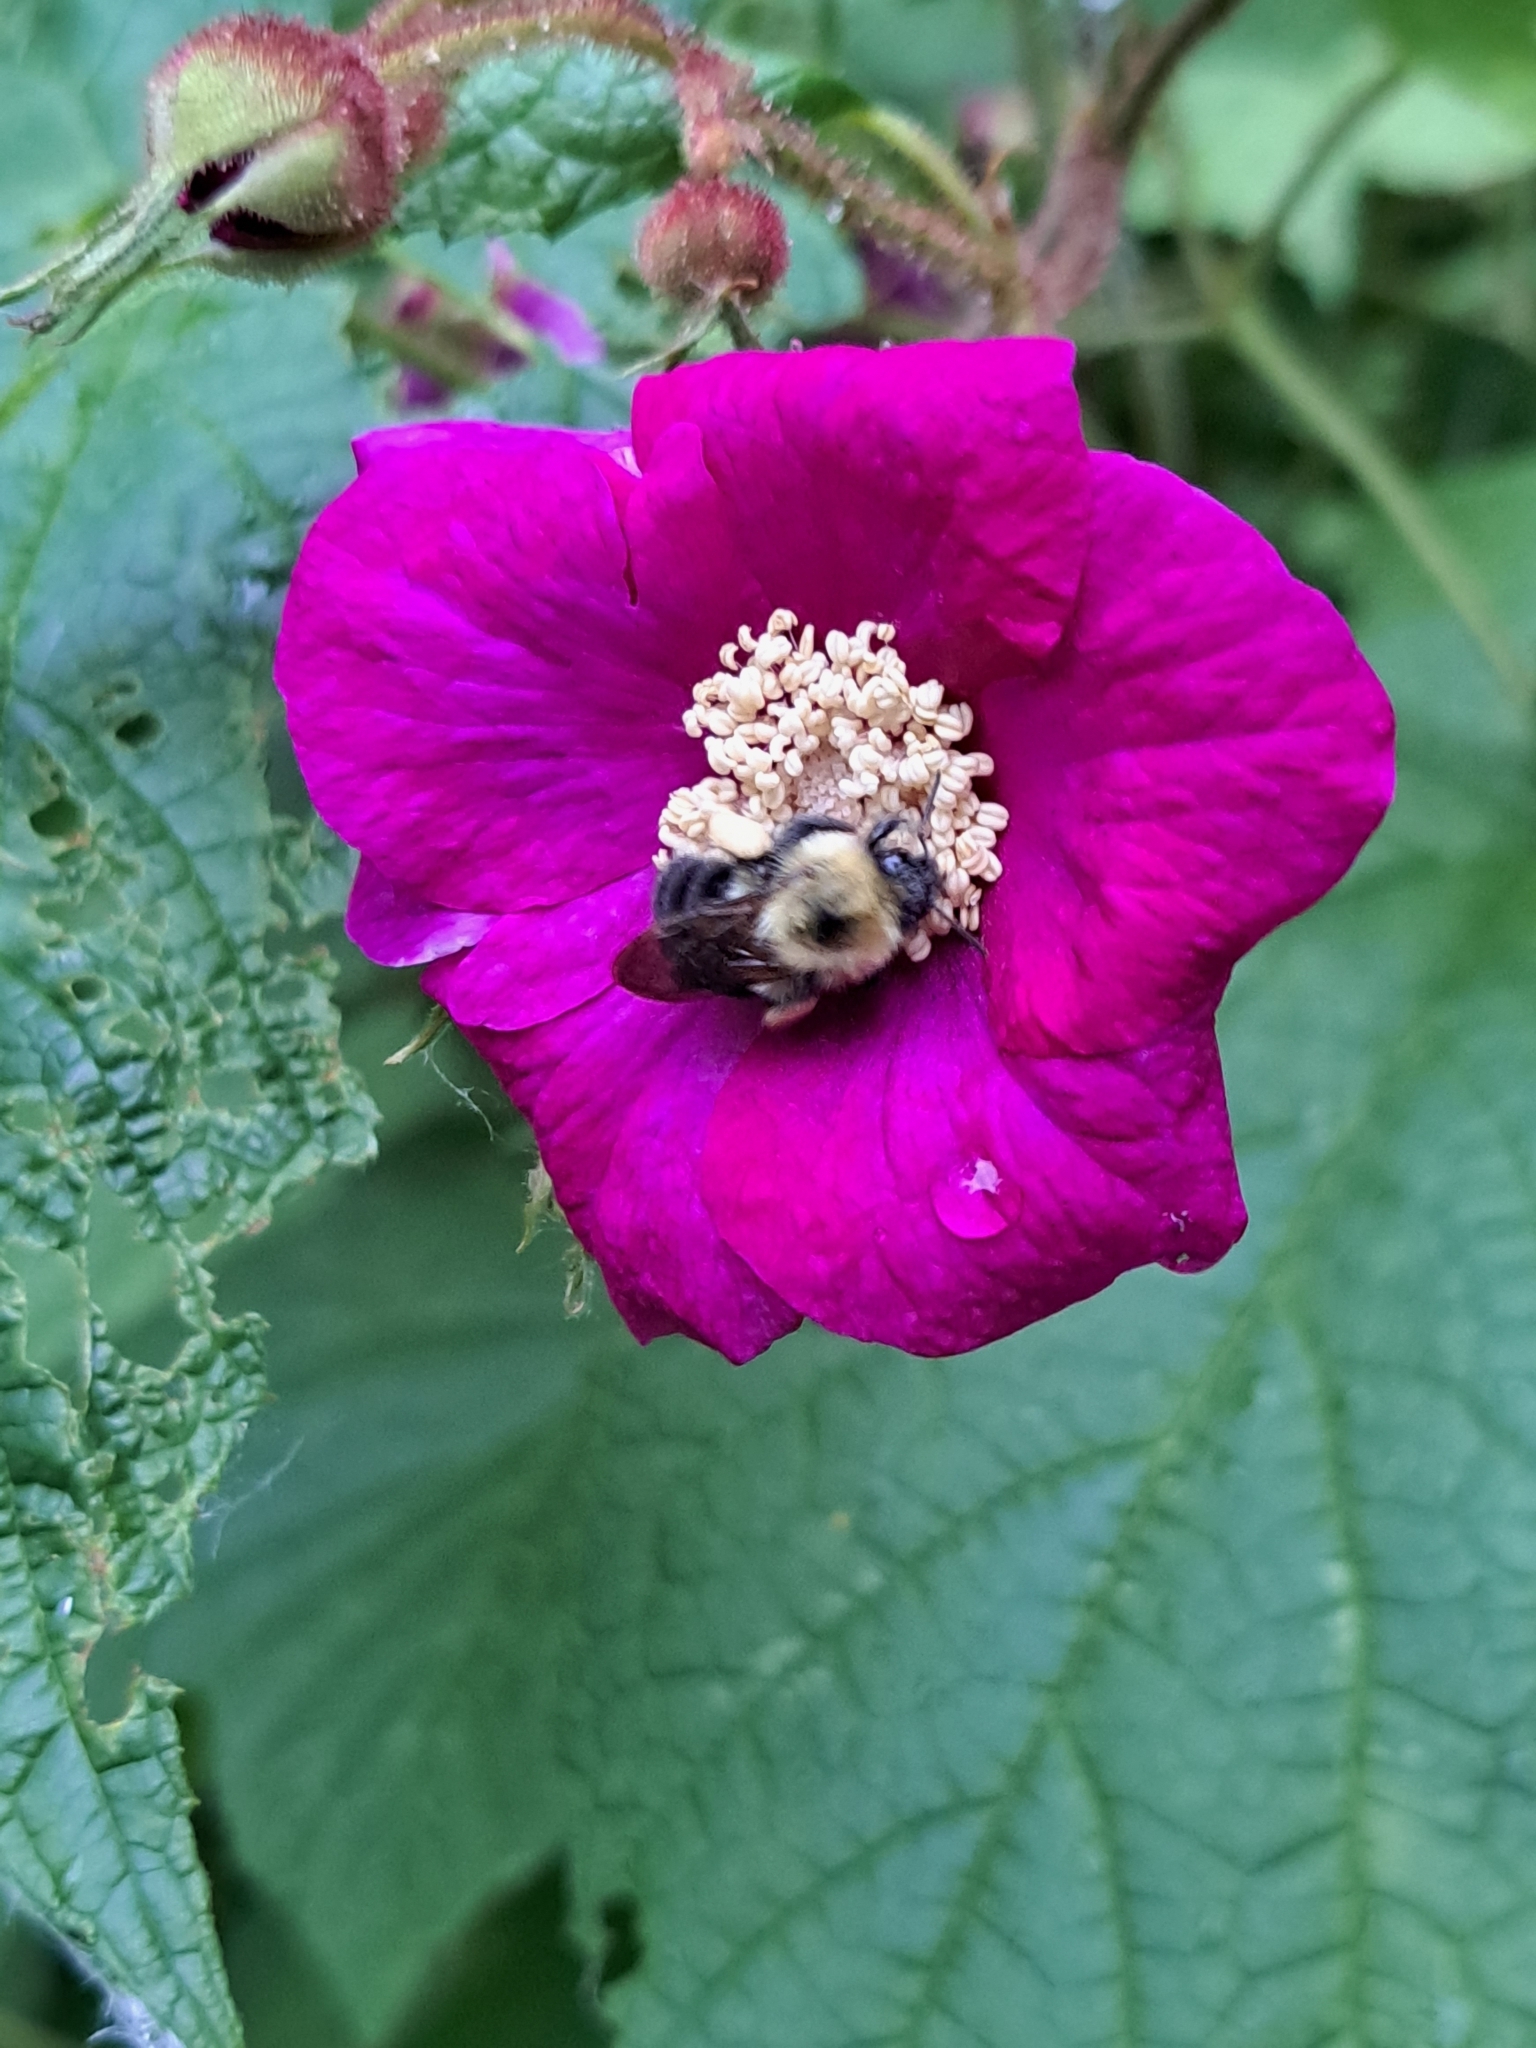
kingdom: Animalia
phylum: Arthropoda
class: Insecta
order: Hymenoptera
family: Apidae
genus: Bombus
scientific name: Bombus bimaculatus
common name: Two-spotted bumble bee
